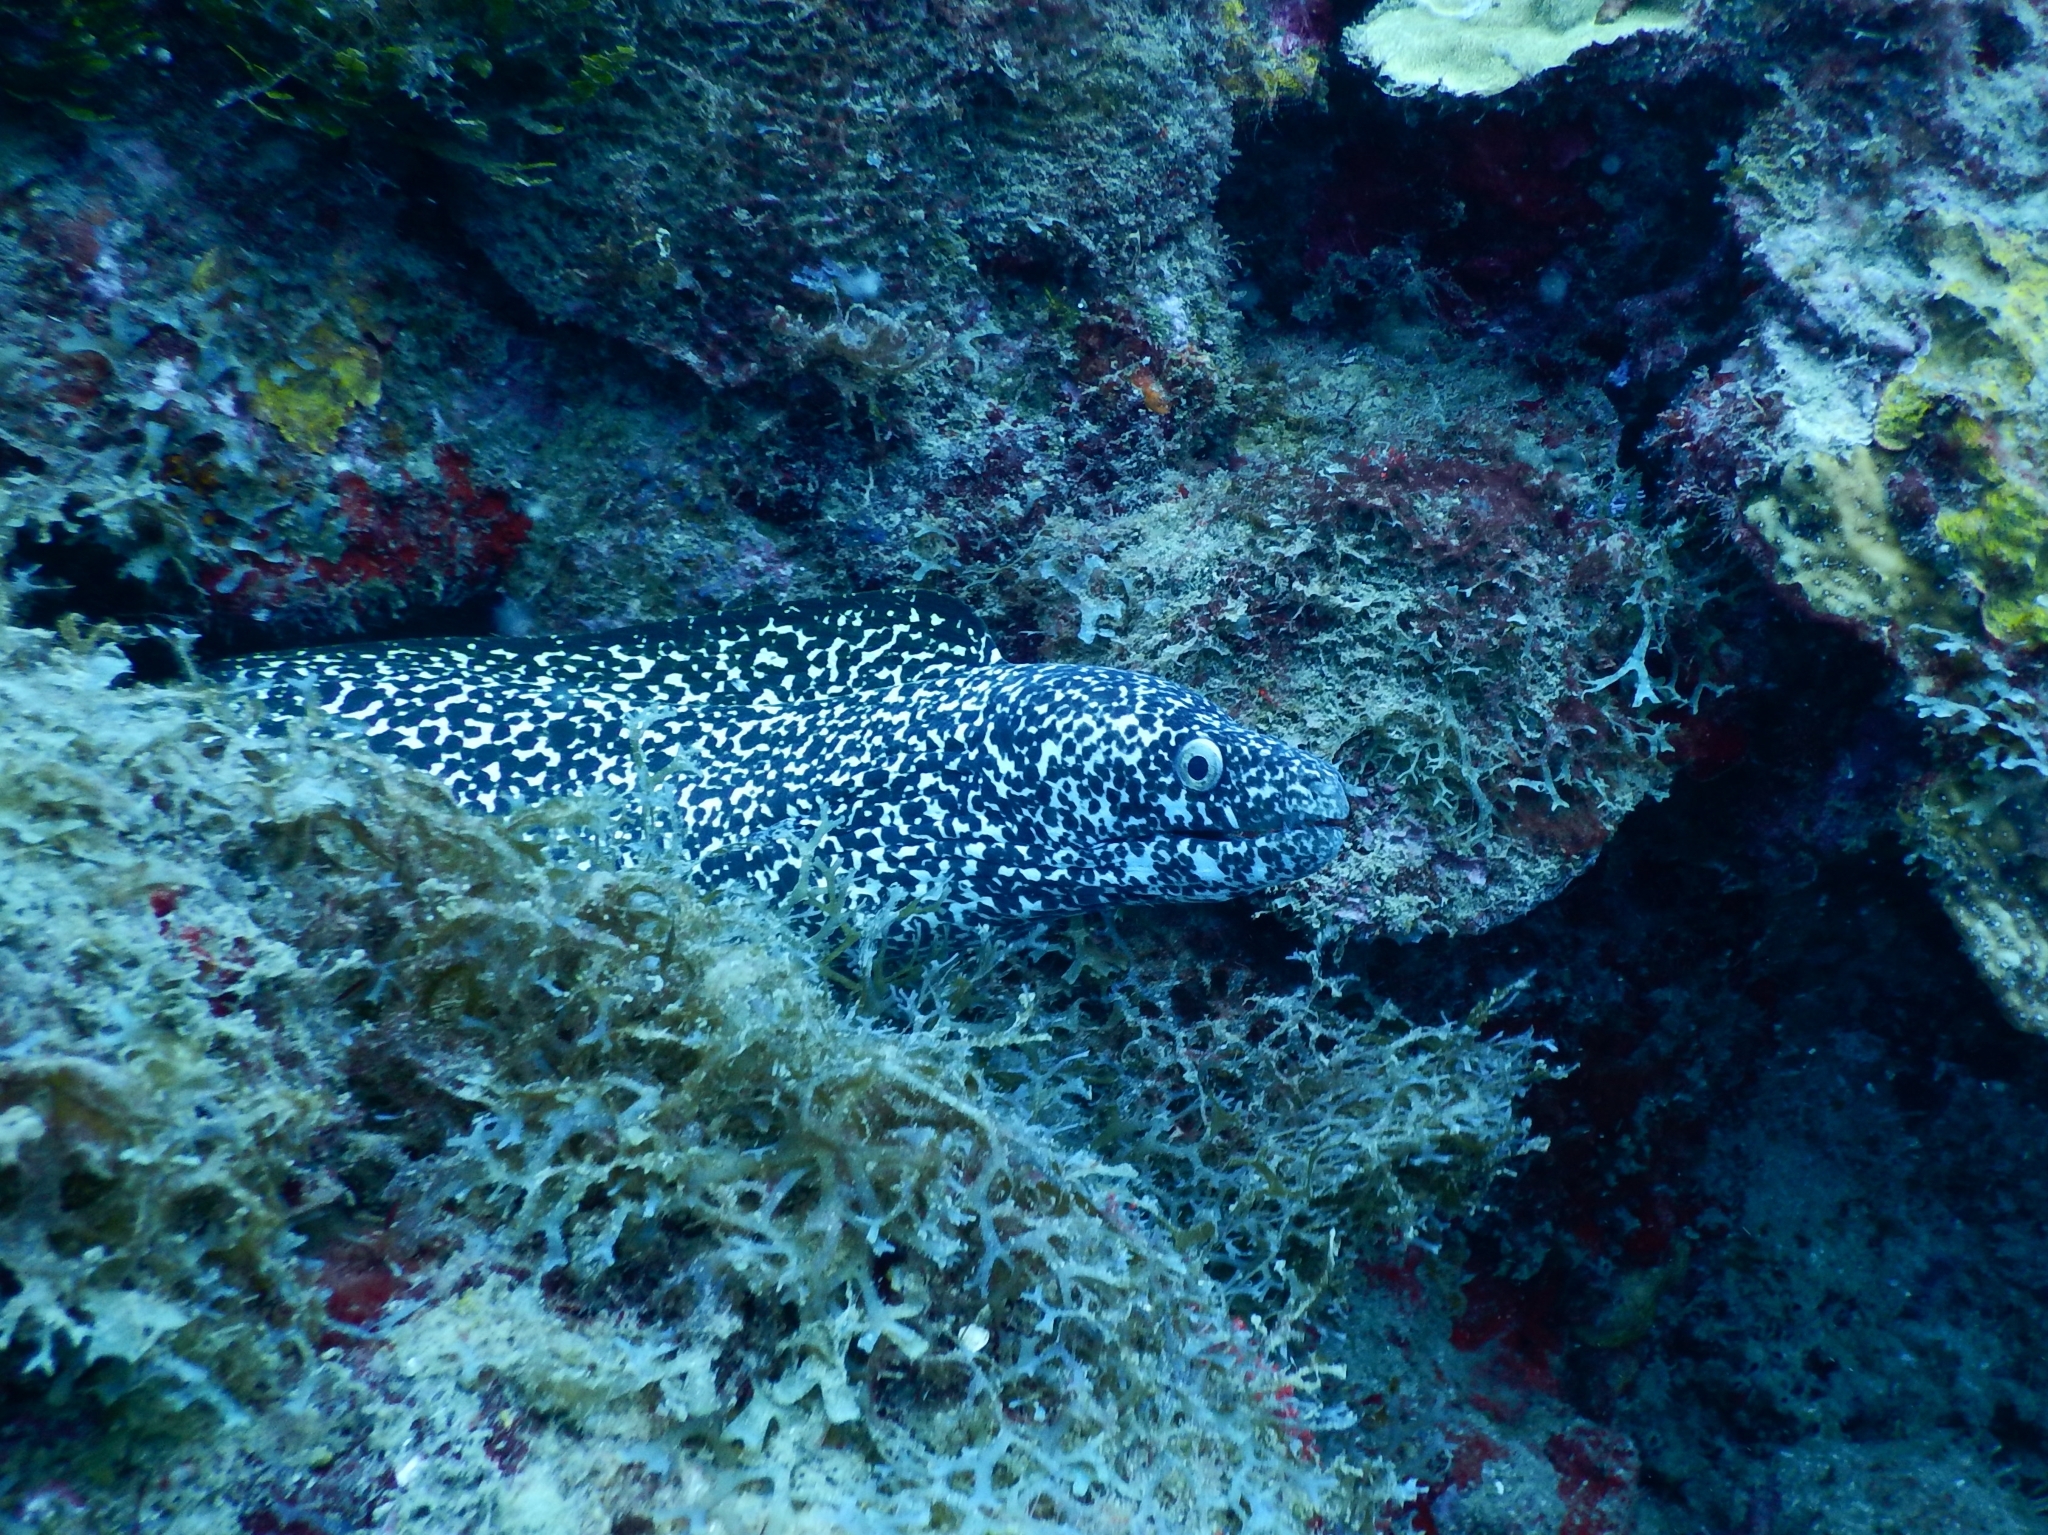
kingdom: Animalia
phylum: Chordata
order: Anguilliformes
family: Muraenidae
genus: Gymnothorax
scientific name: Gymnothorax moringa
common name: Spotted moray
